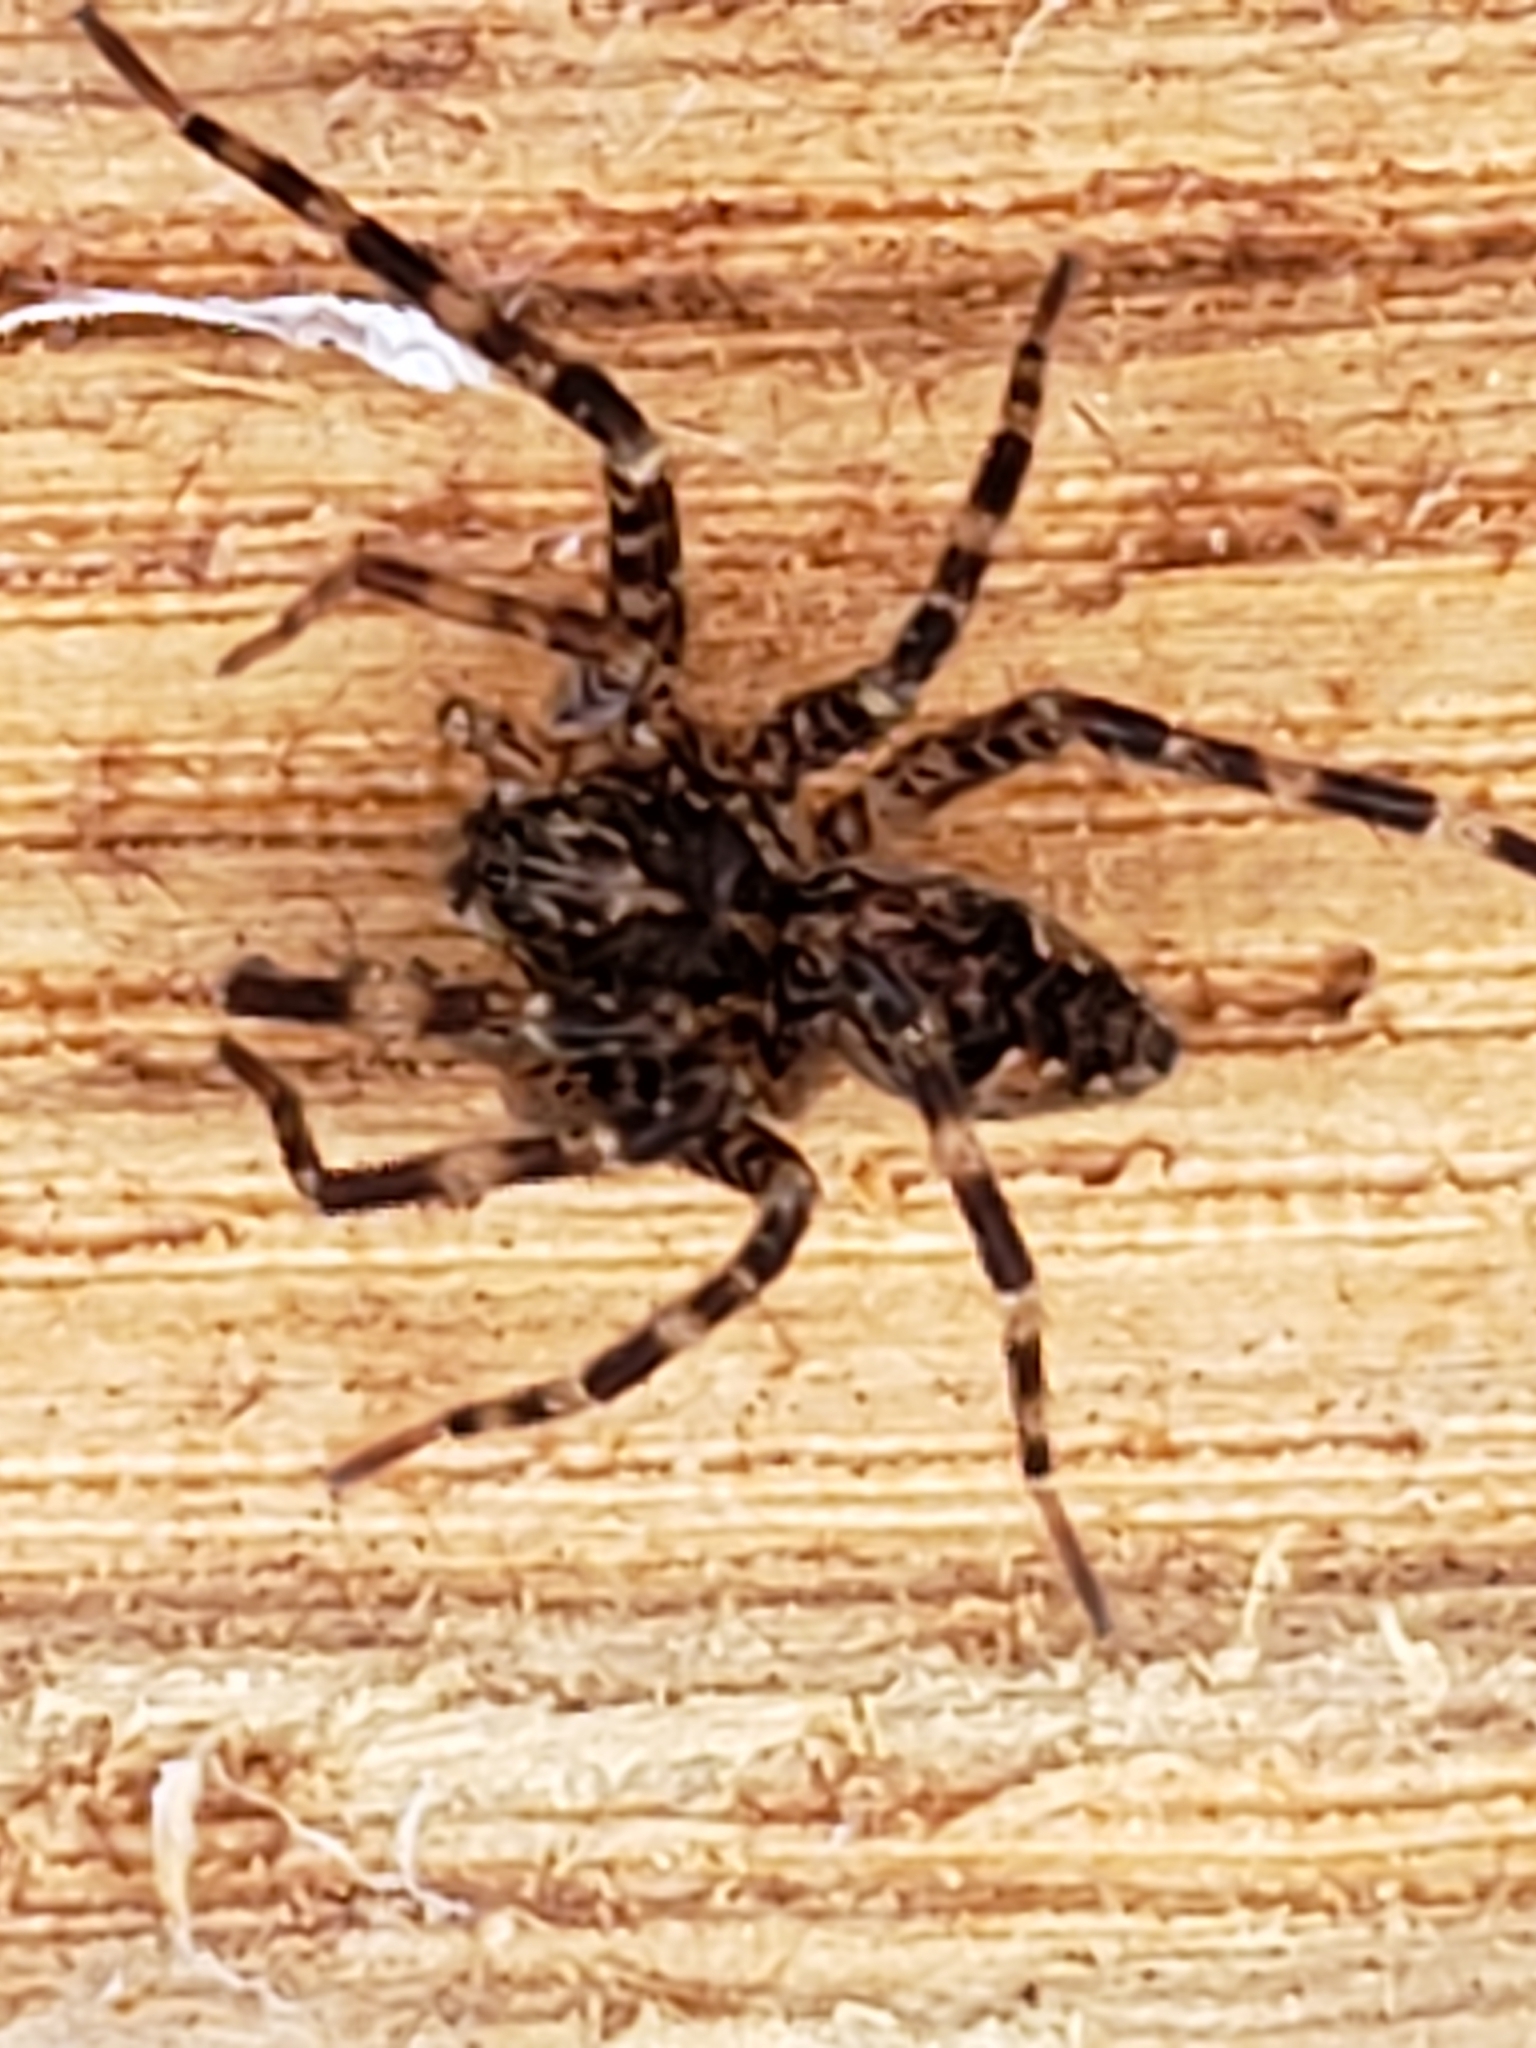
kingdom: Animalia
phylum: Arthropoda
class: Arachnida
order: Araneae
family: Pisauridae
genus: Dolomedes
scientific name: Dolomedes tenebrosus
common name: Dark fishing spider
